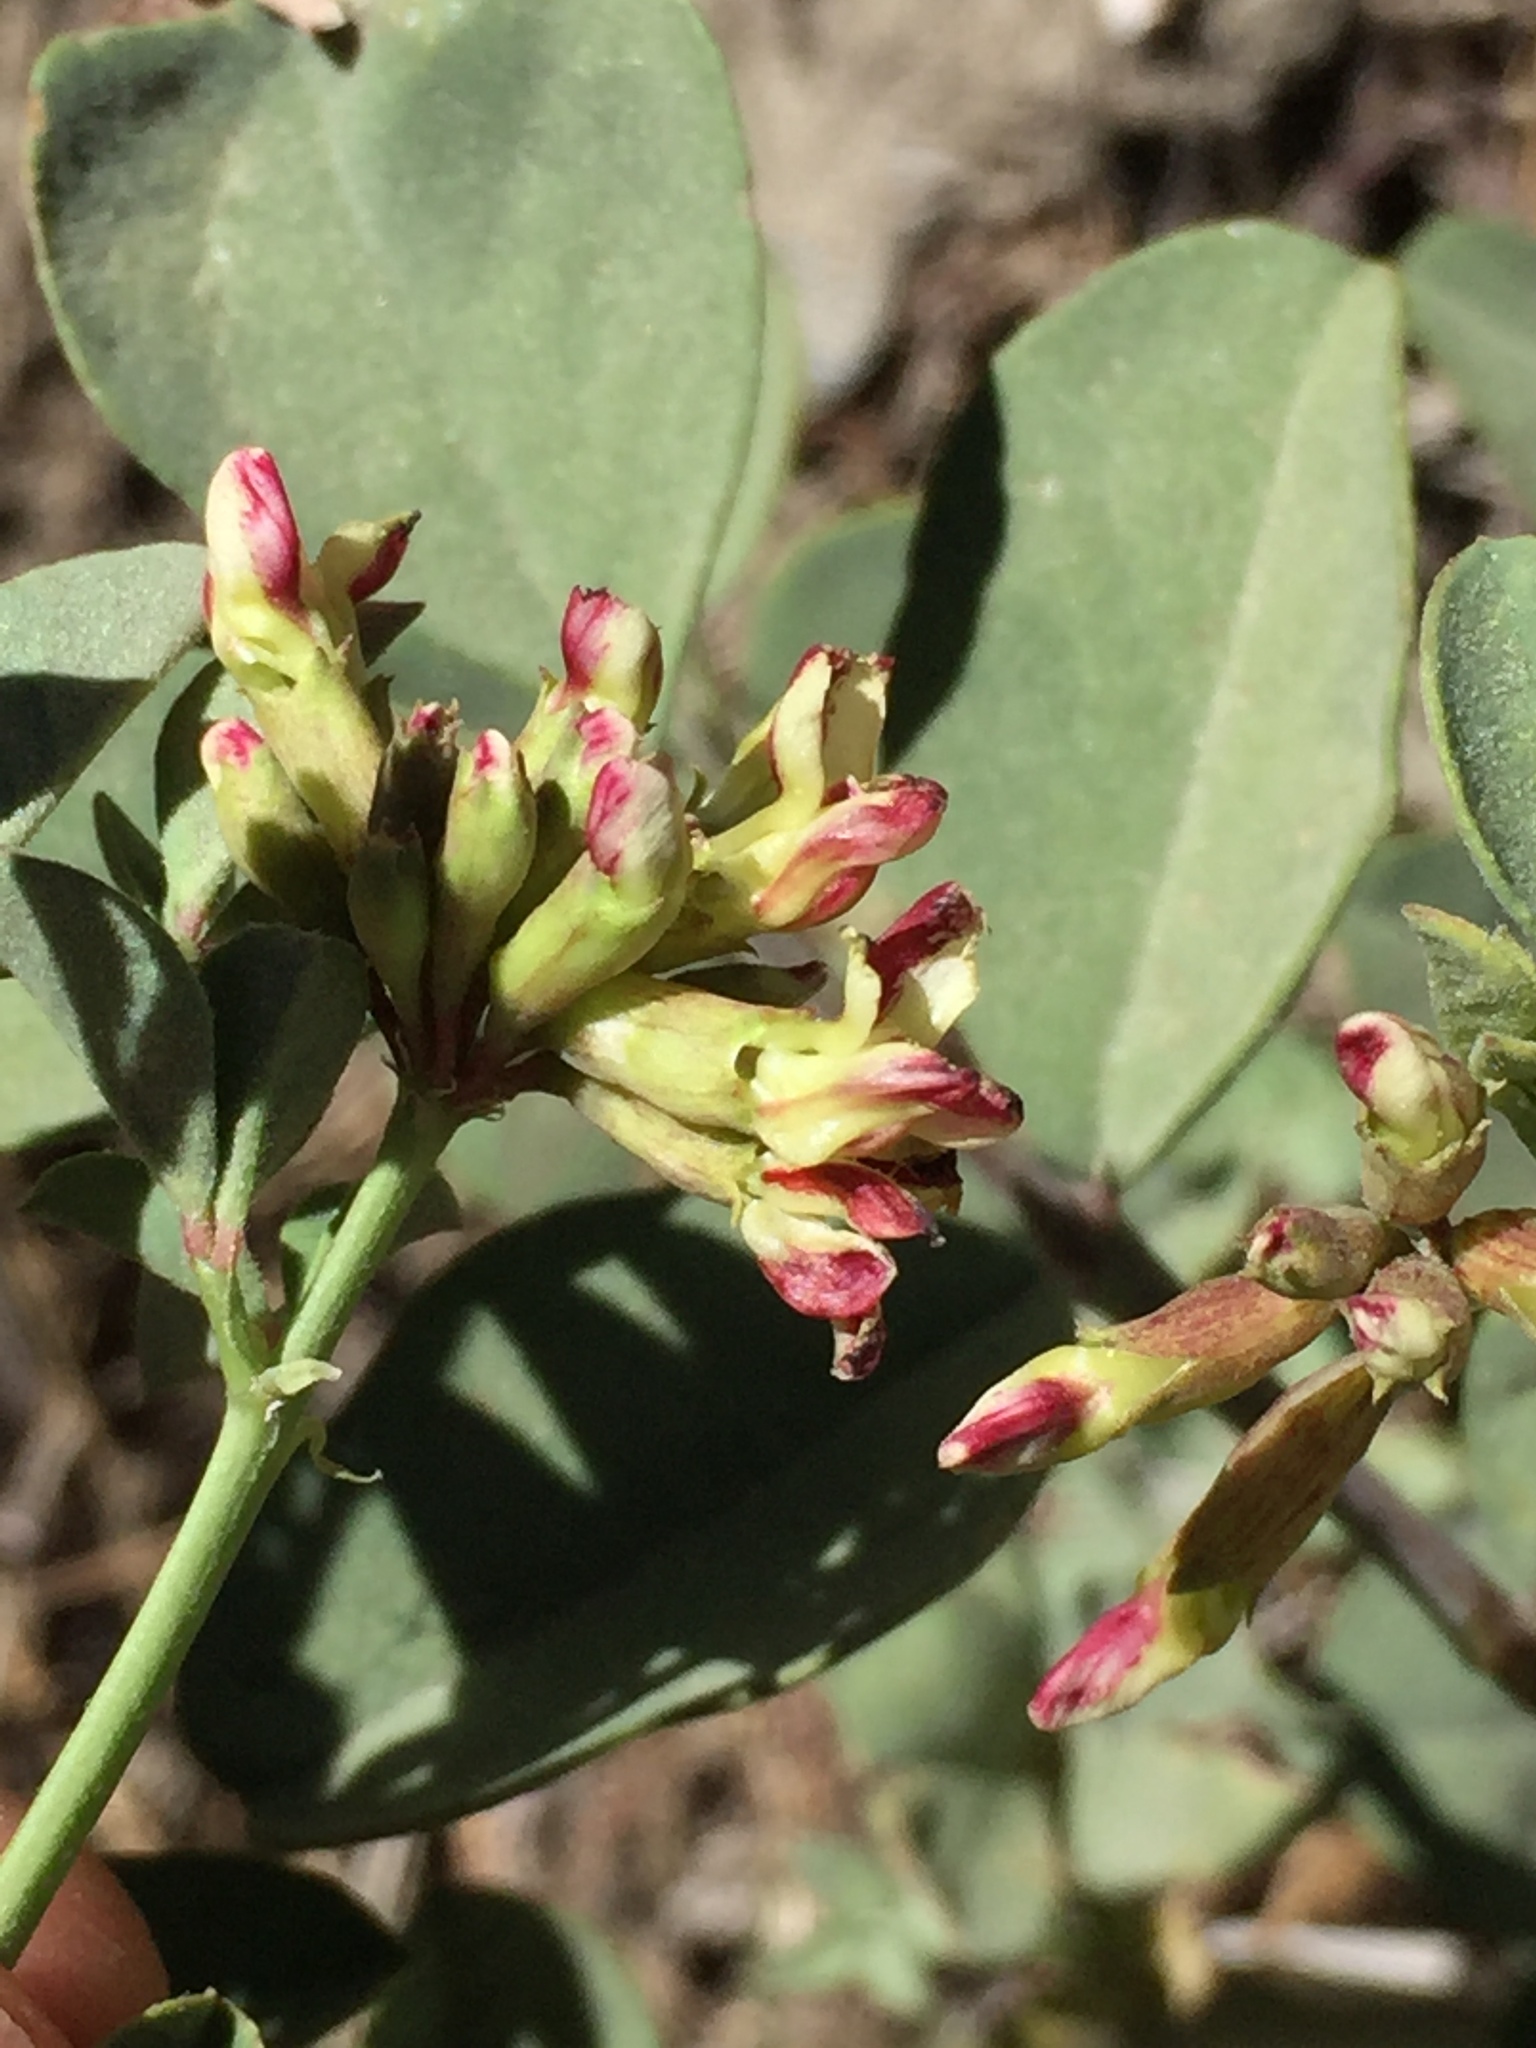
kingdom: Plantae
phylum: Tracheophyta
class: Magnoliopsida
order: Fabales
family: Fabaceae
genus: Hosackia
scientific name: Hosackia crassifolia
